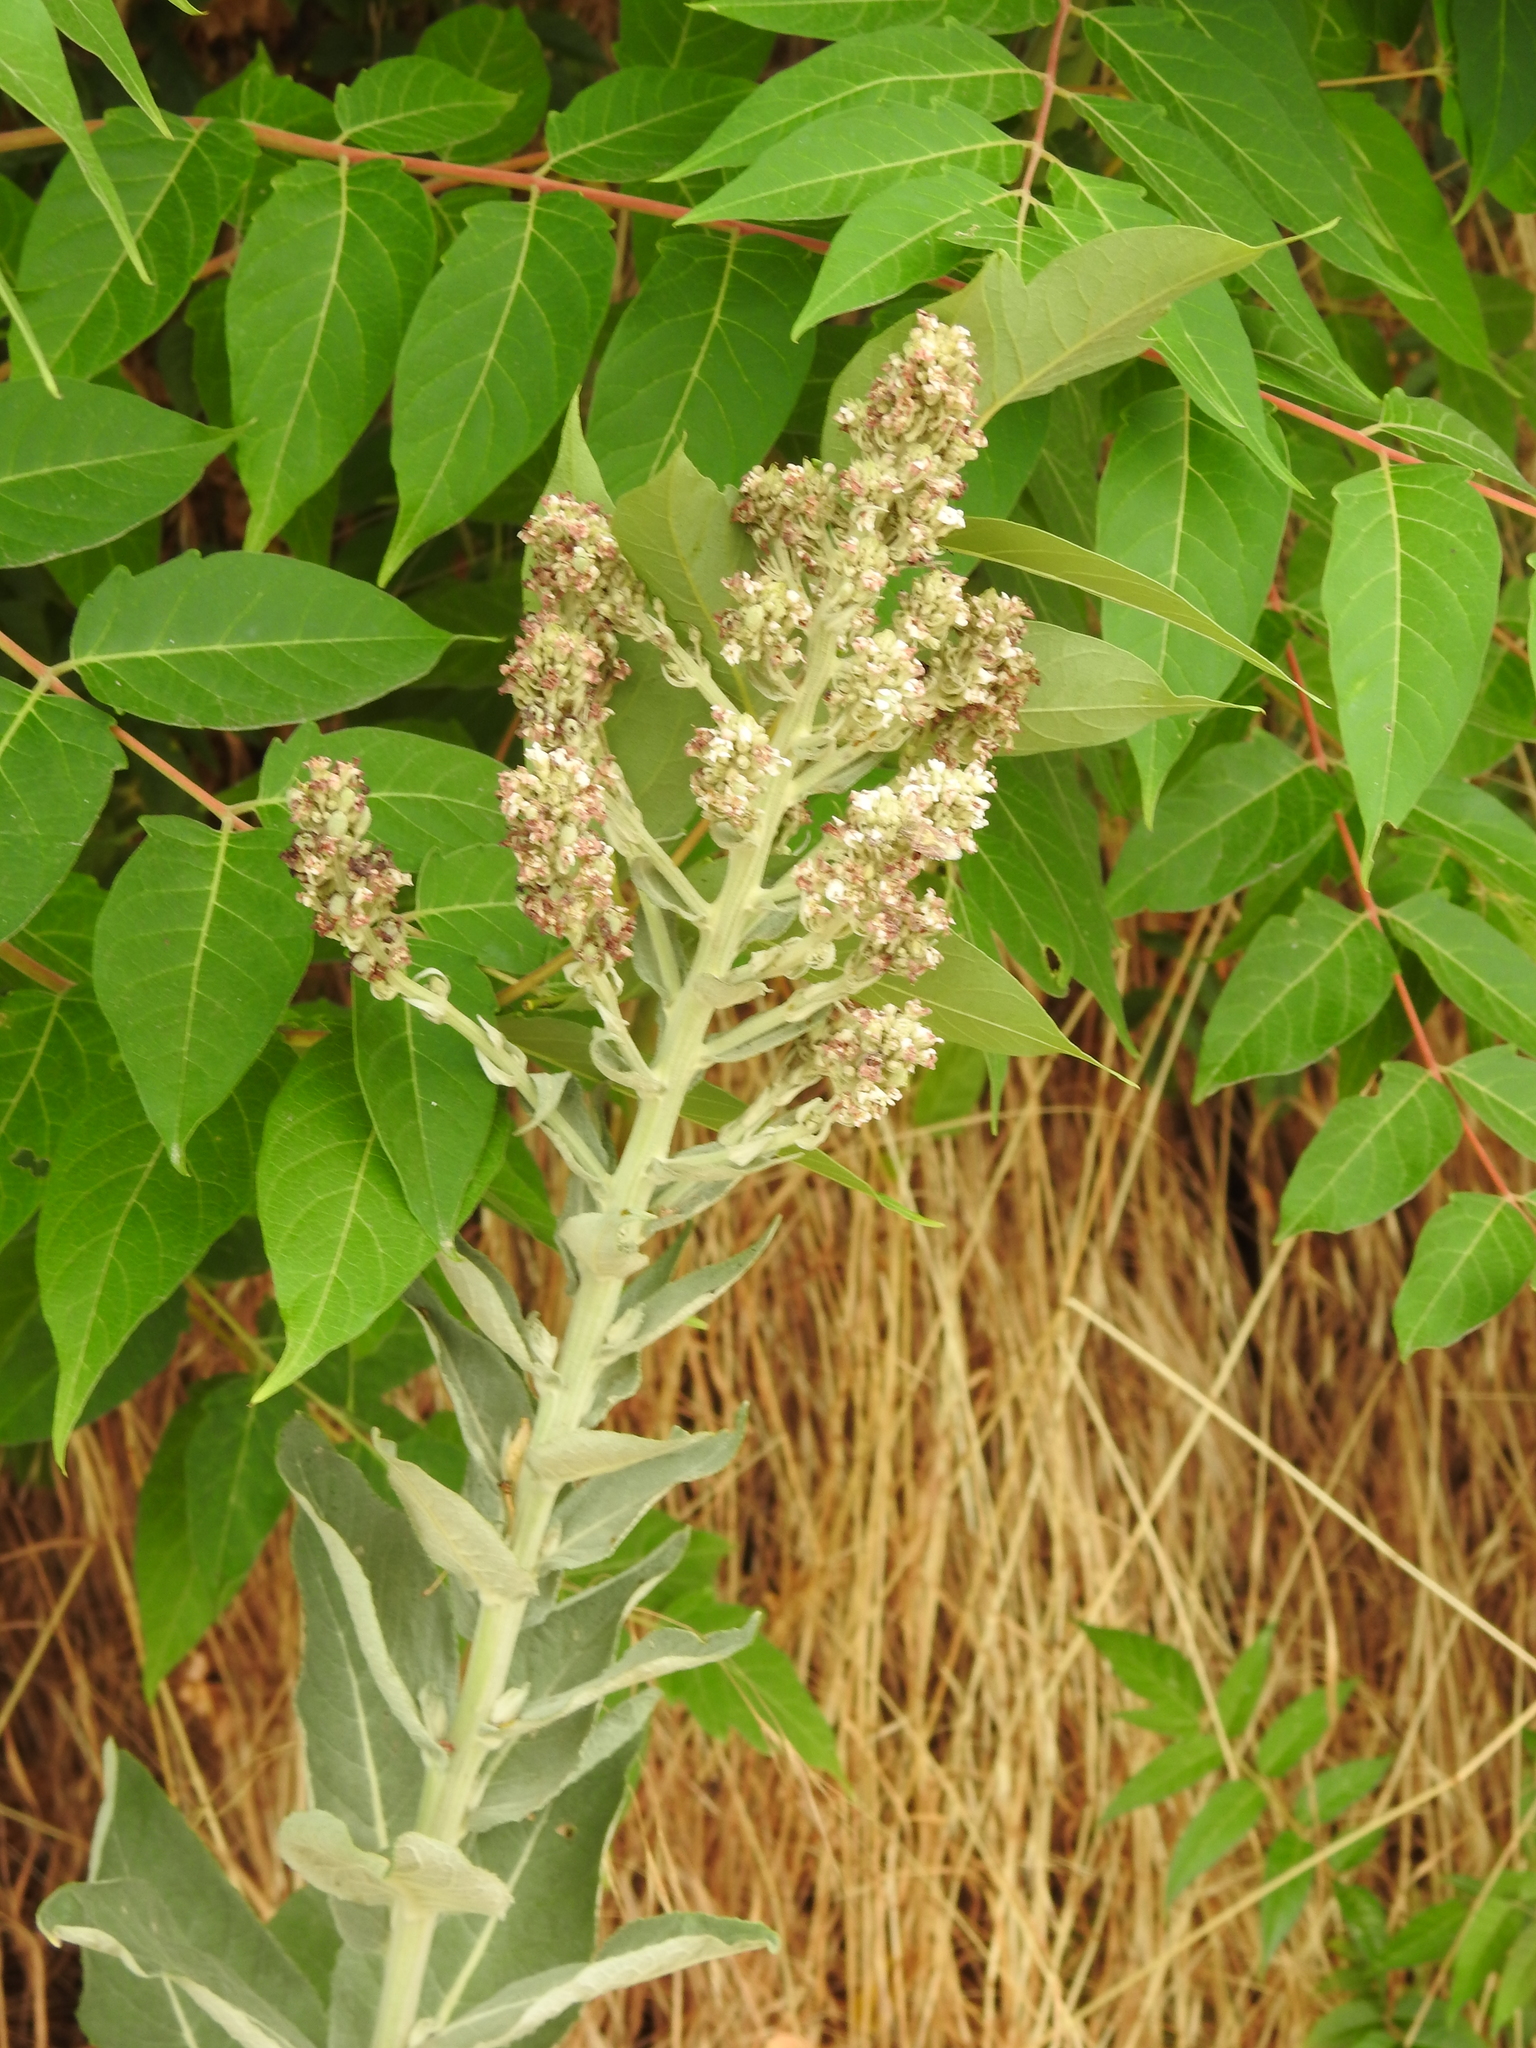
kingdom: Plantae
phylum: Tracheophyta
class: Magnoliopsida
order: Lamiales
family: Scrophulariaceae
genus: Verbascum
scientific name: Verbascum lychnitis
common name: White mullein
